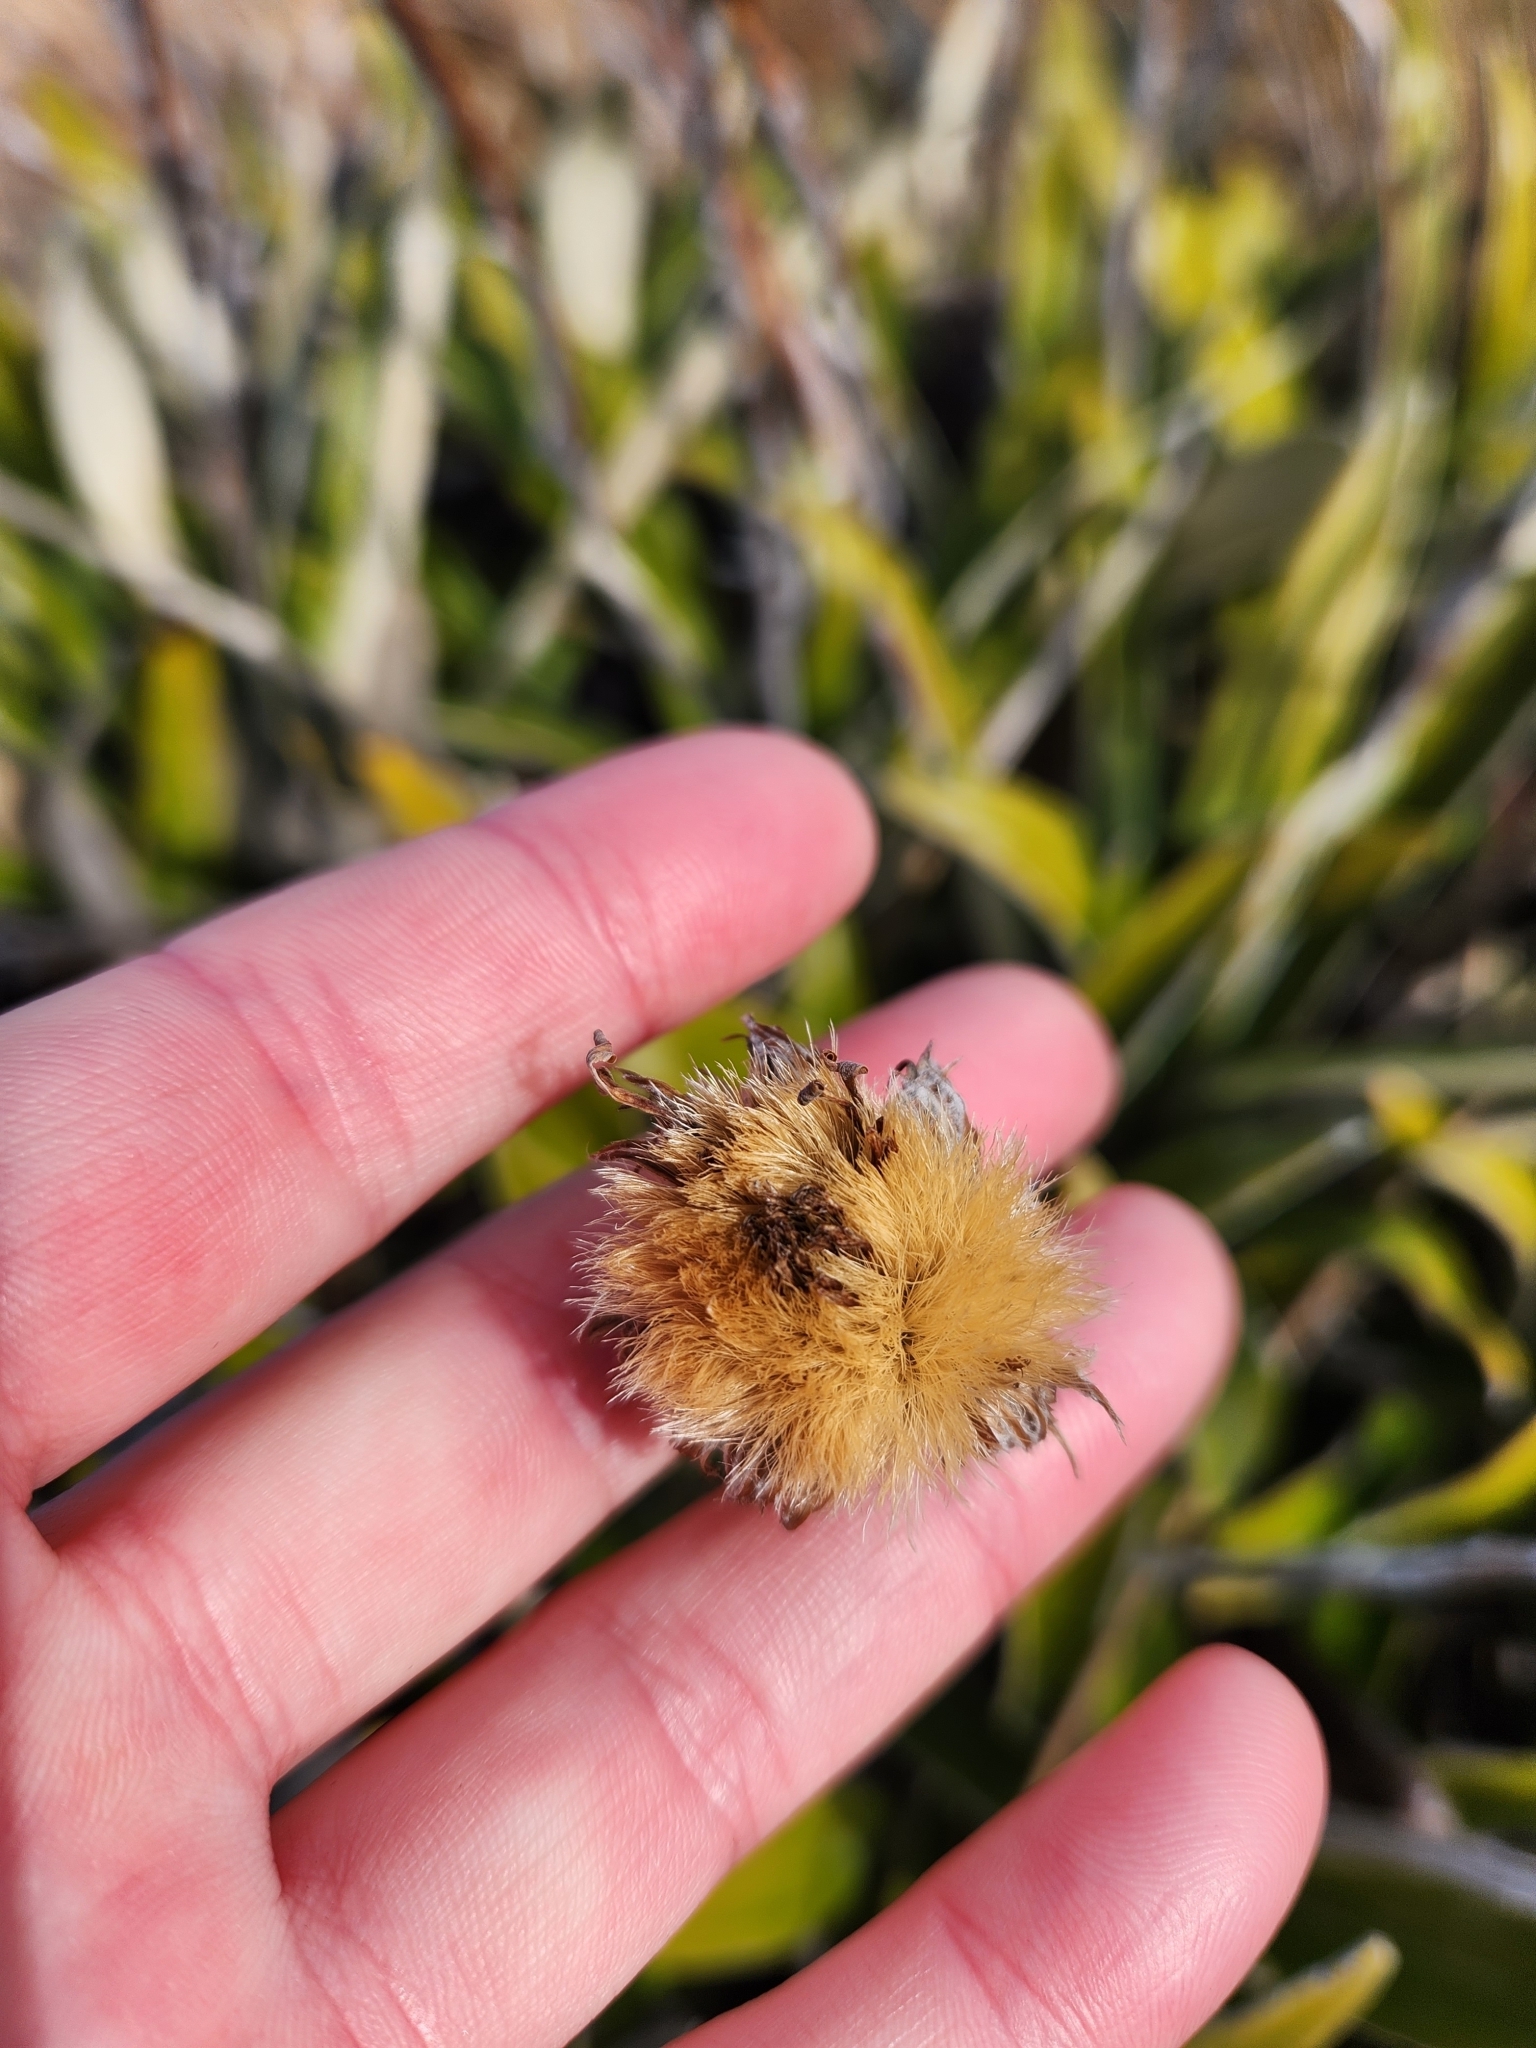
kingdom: Plantae
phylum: Tracheophyta
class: Magnoliopsida
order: Asterales
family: Asteraceae
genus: Celmisia
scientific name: Celmisia spectabilis
